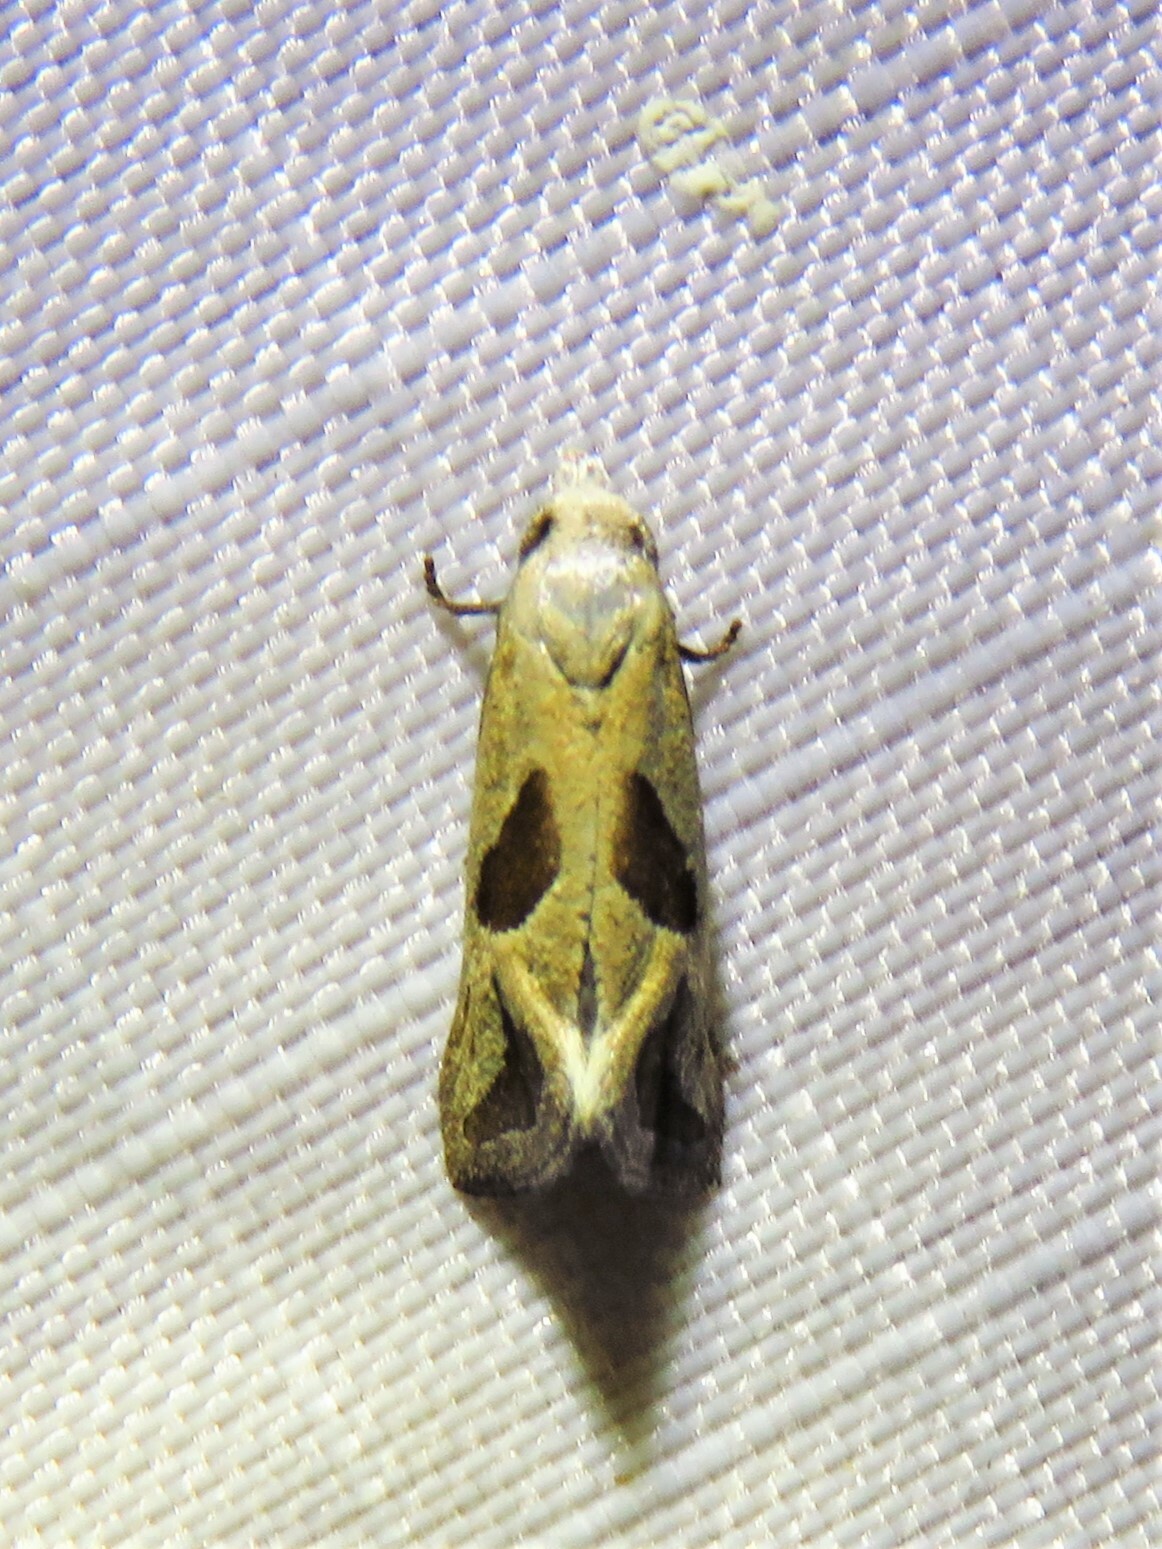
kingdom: Animalia
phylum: Arthropoda
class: Insecta
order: Lepidoptera
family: Tortricidae
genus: Eugnosta
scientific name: Eugnosta bimaculana
